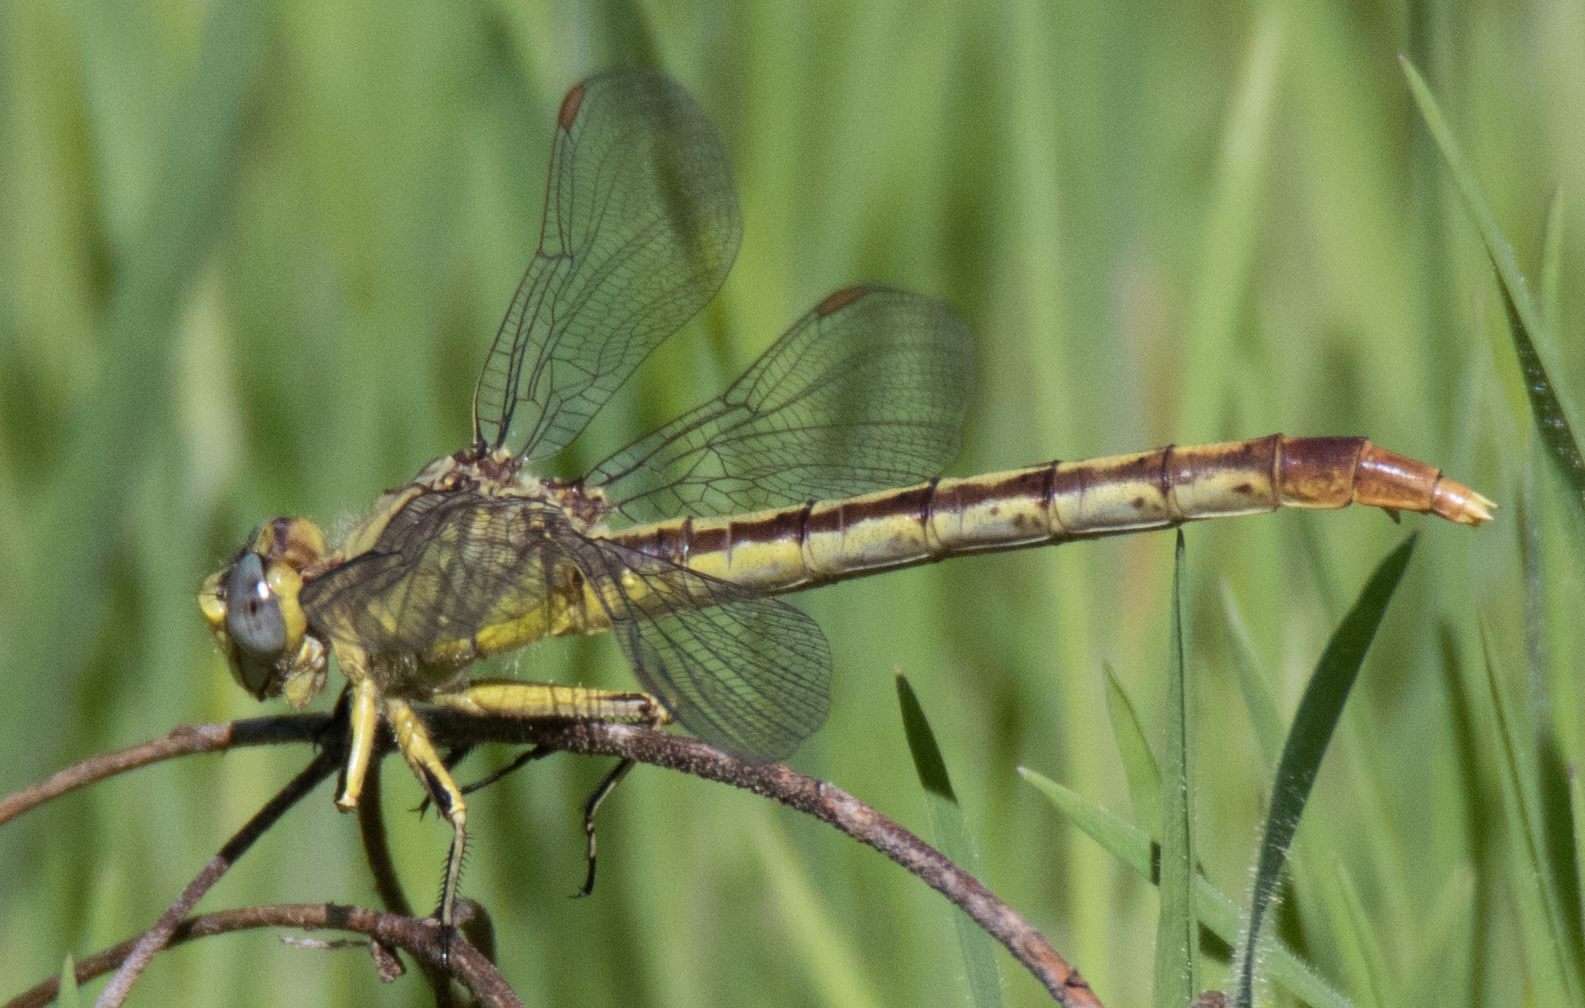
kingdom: Animalia
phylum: Arthropoda
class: Insecta
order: Odonata
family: Gomphidae
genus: Arigomphus
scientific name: Arigomphus lentulus
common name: Stillwater clubtail
